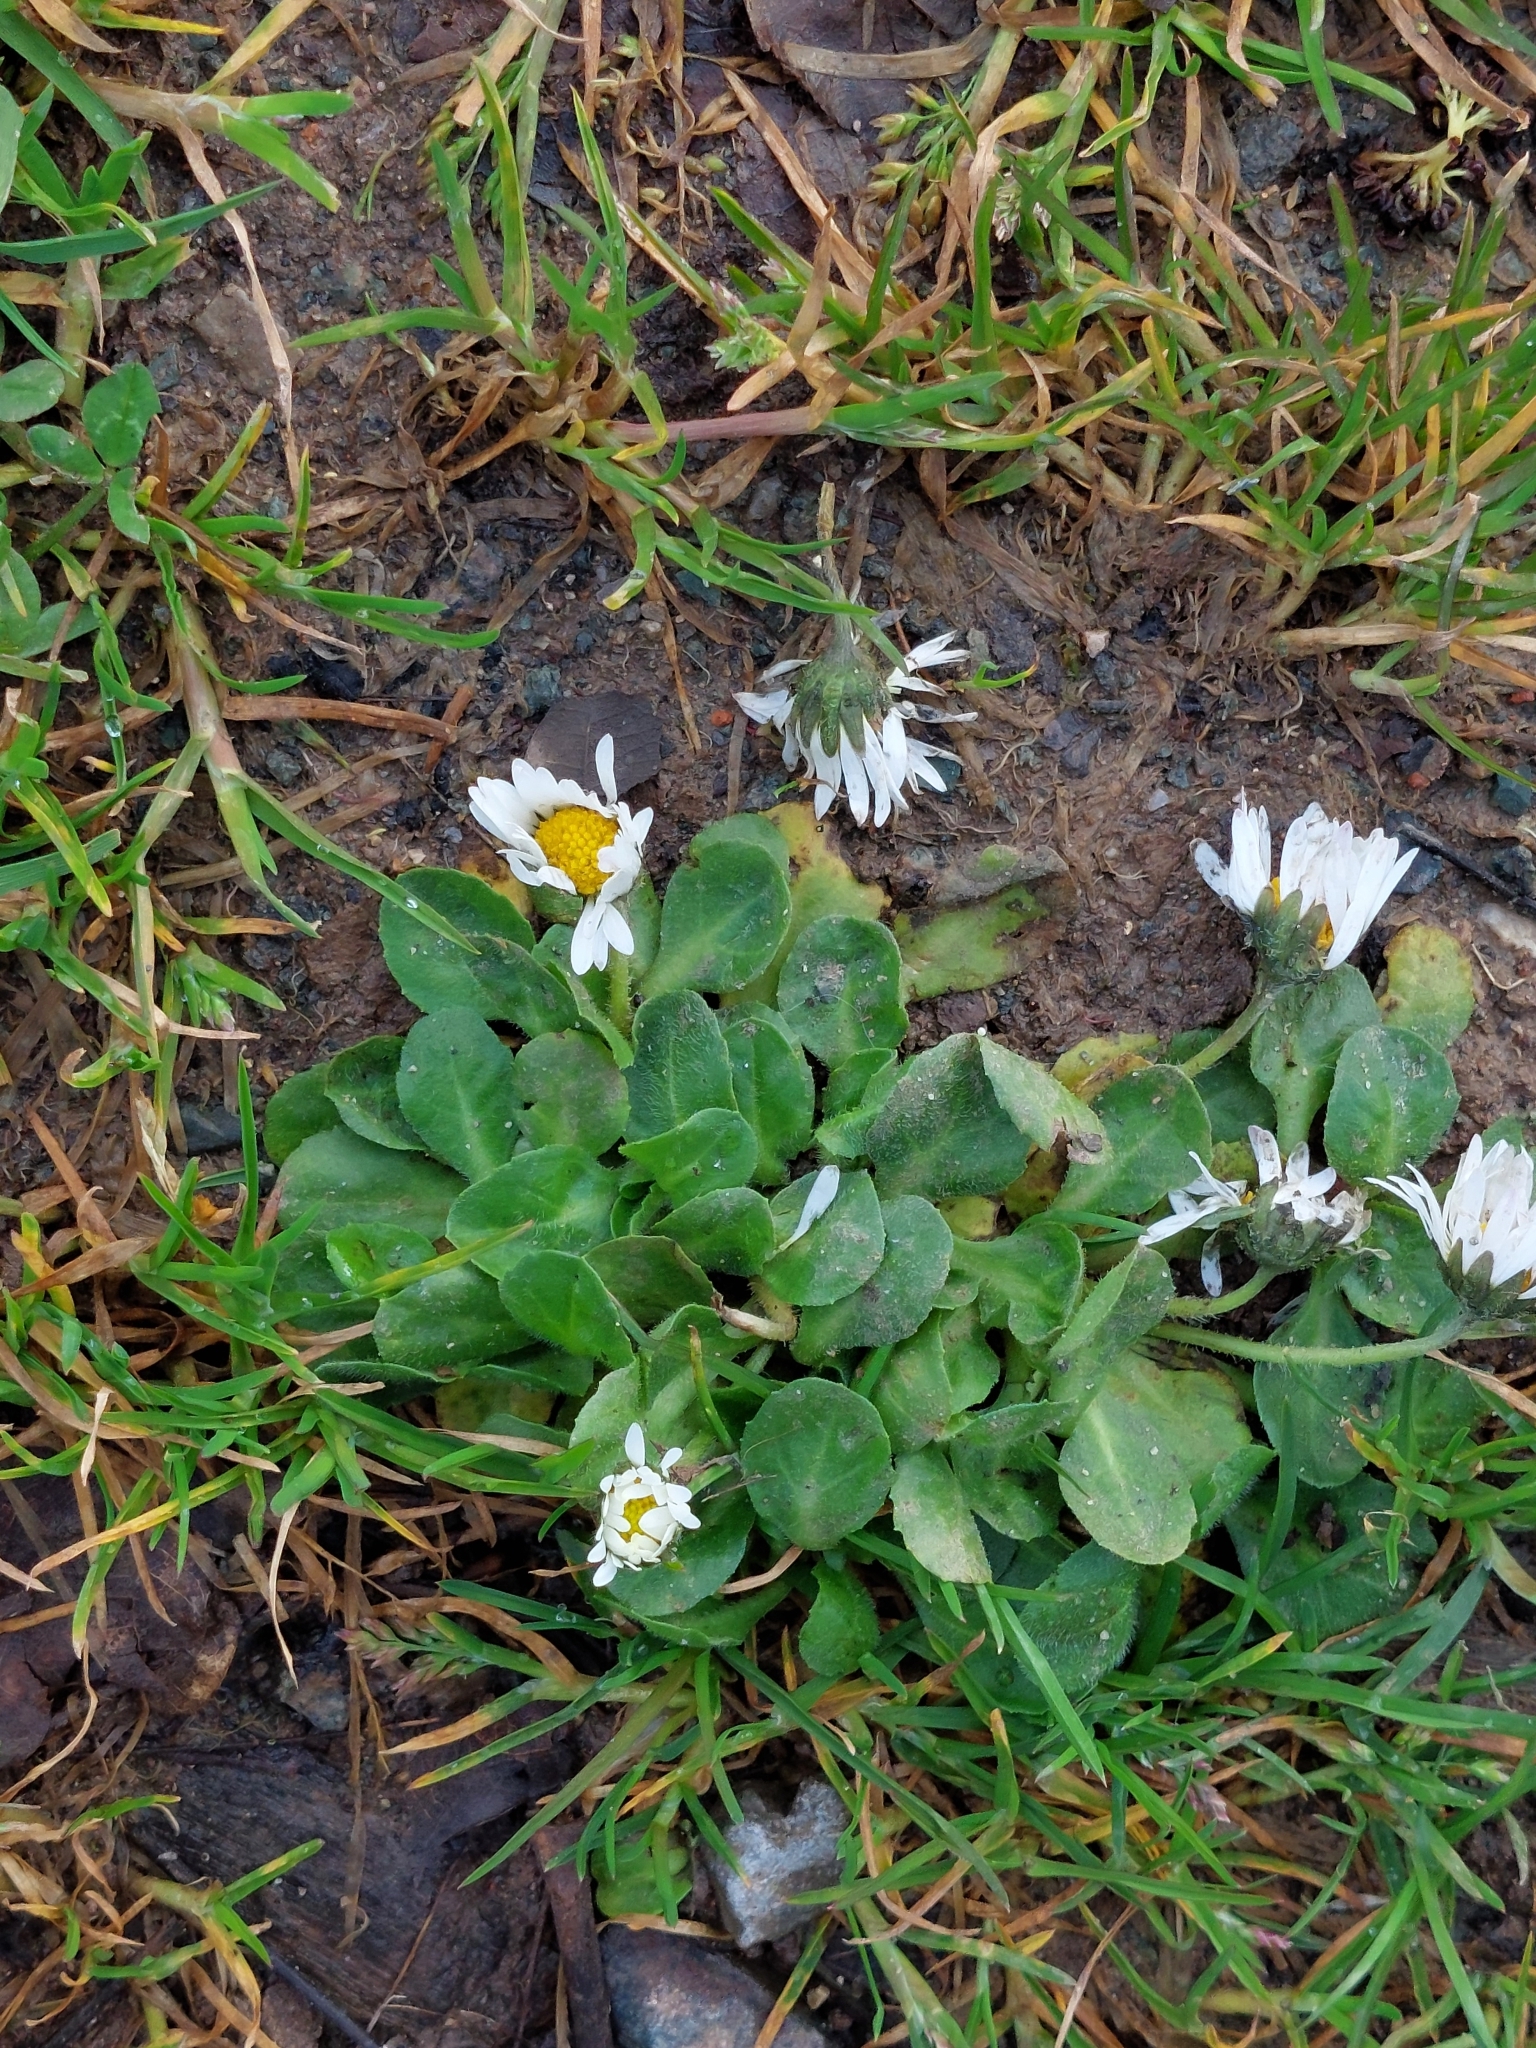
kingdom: Plantae
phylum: Tracheophyta
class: Magnoliopsida
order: Asterales
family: Asteraceae
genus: Bellis
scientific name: Bellis perennis
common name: Lawndaisy
